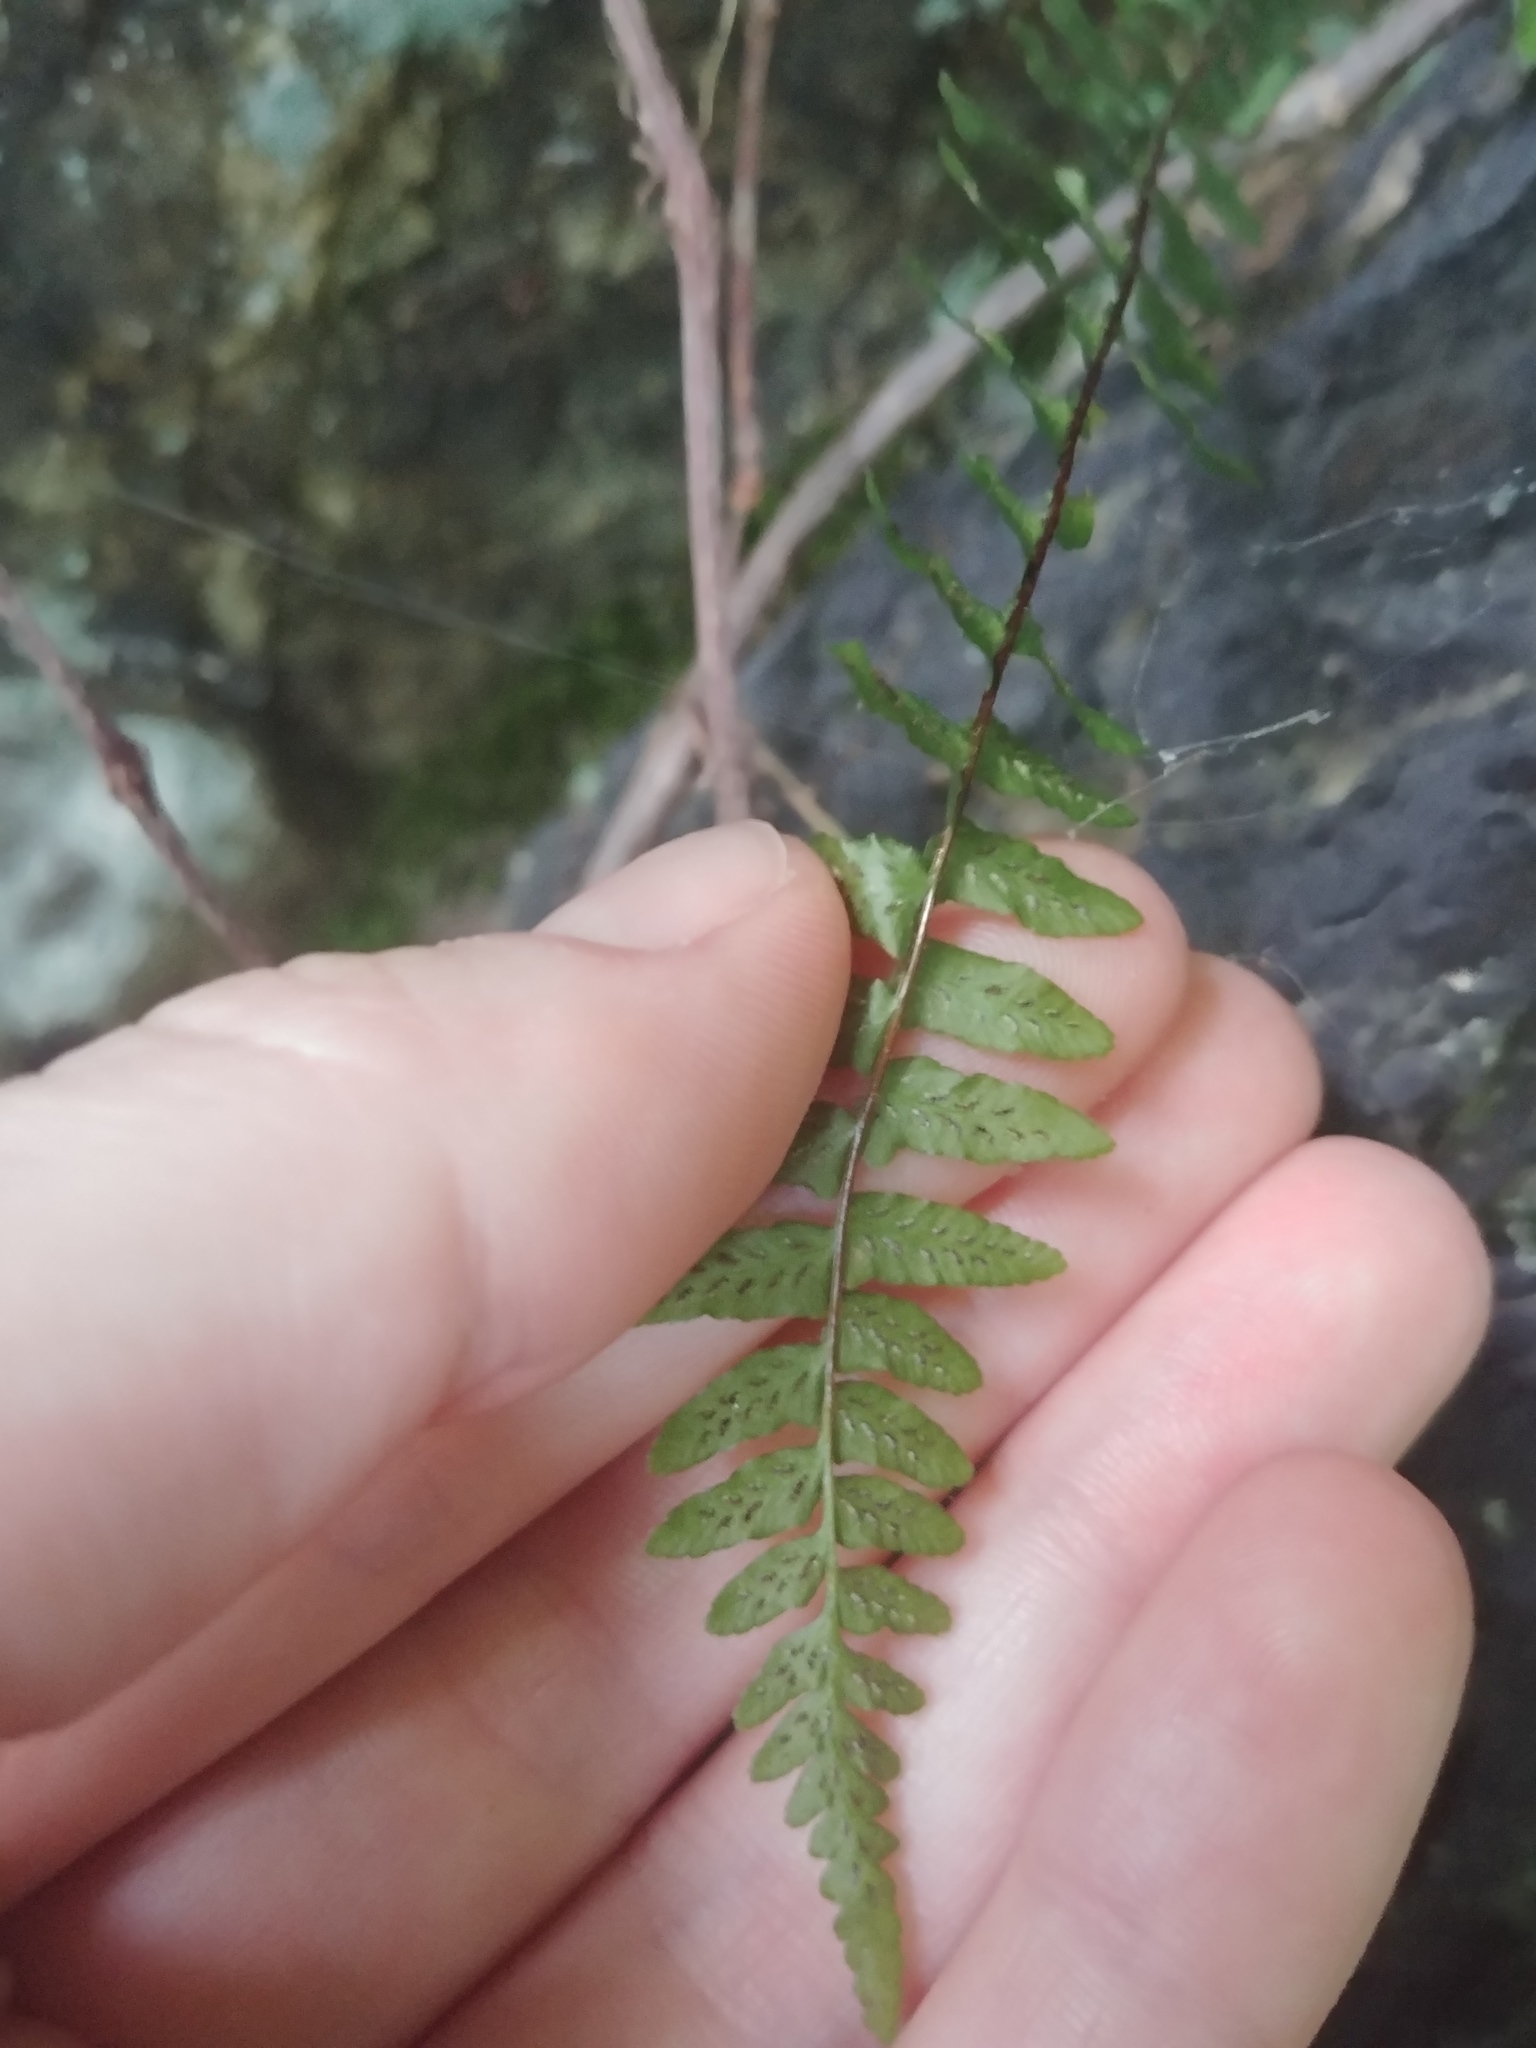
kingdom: Plantae
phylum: Tracheophyta
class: Polypodiopsida
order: Polypodiales
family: Aspleniaceae
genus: Asplenium
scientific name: Asplenium platyneuron
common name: Ebony spleenwort
